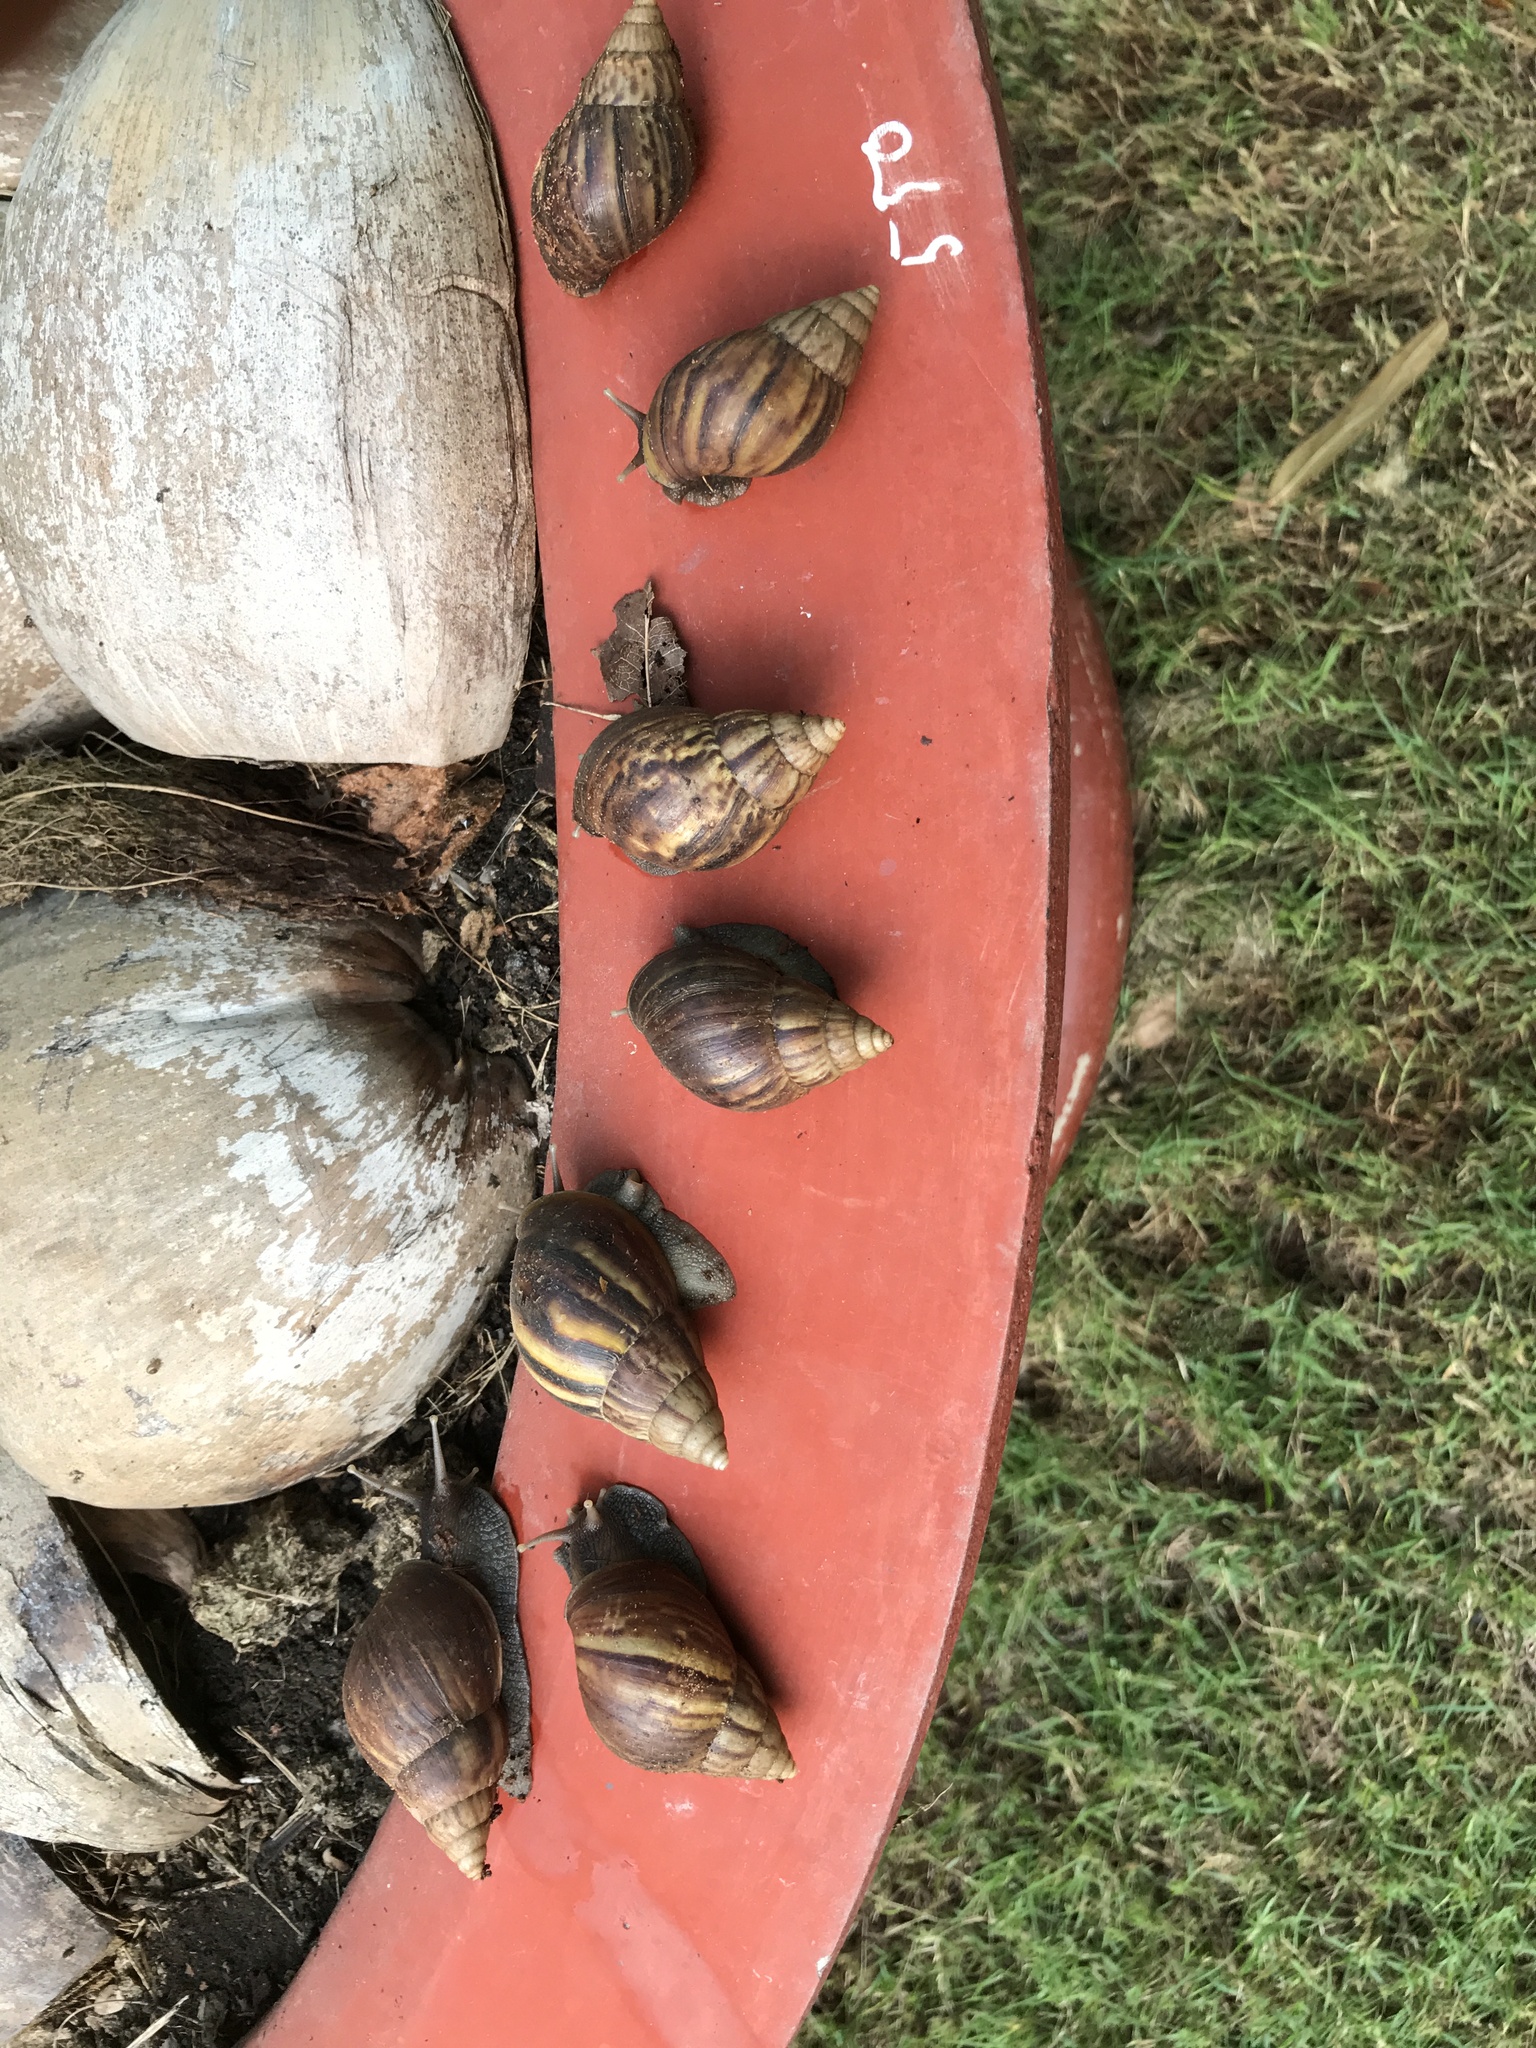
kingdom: Animalia
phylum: Mollusca
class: Gastropoda
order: Stylommatophora
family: Achatinidae
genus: Lissachatina
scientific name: Lissachatina fulica
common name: Giant african snail
